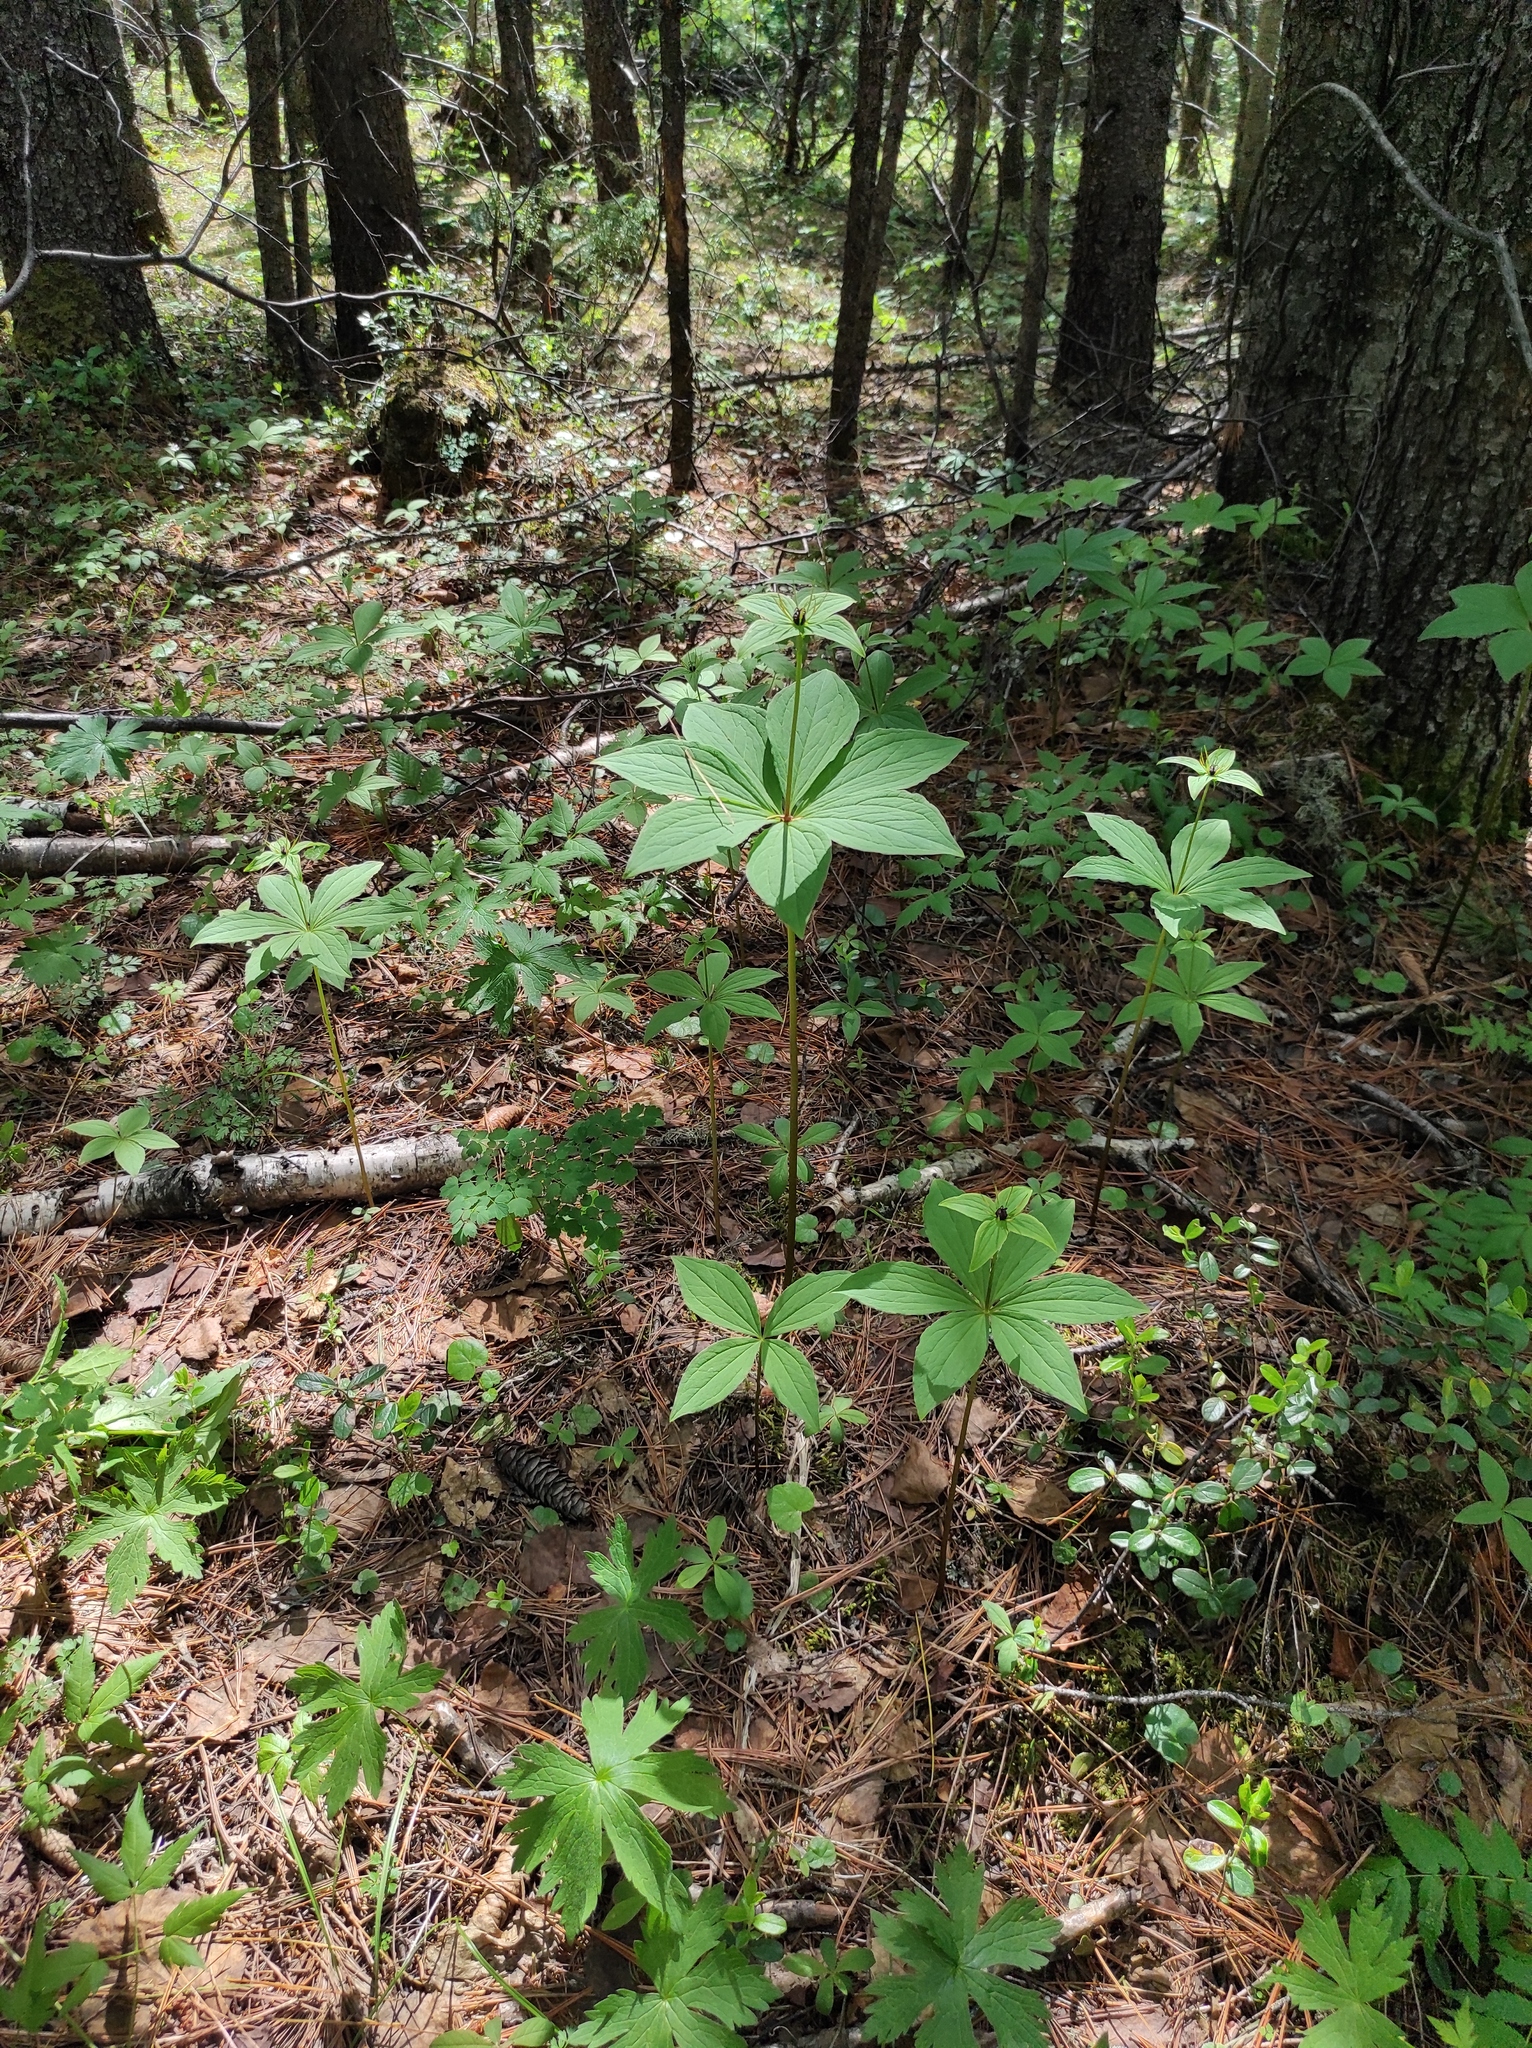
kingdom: Plantae
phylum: Tracheophyta
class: Liliopsida
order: Liliales
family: Melanthiaceae
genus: Paris
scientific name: Paris verticillata
